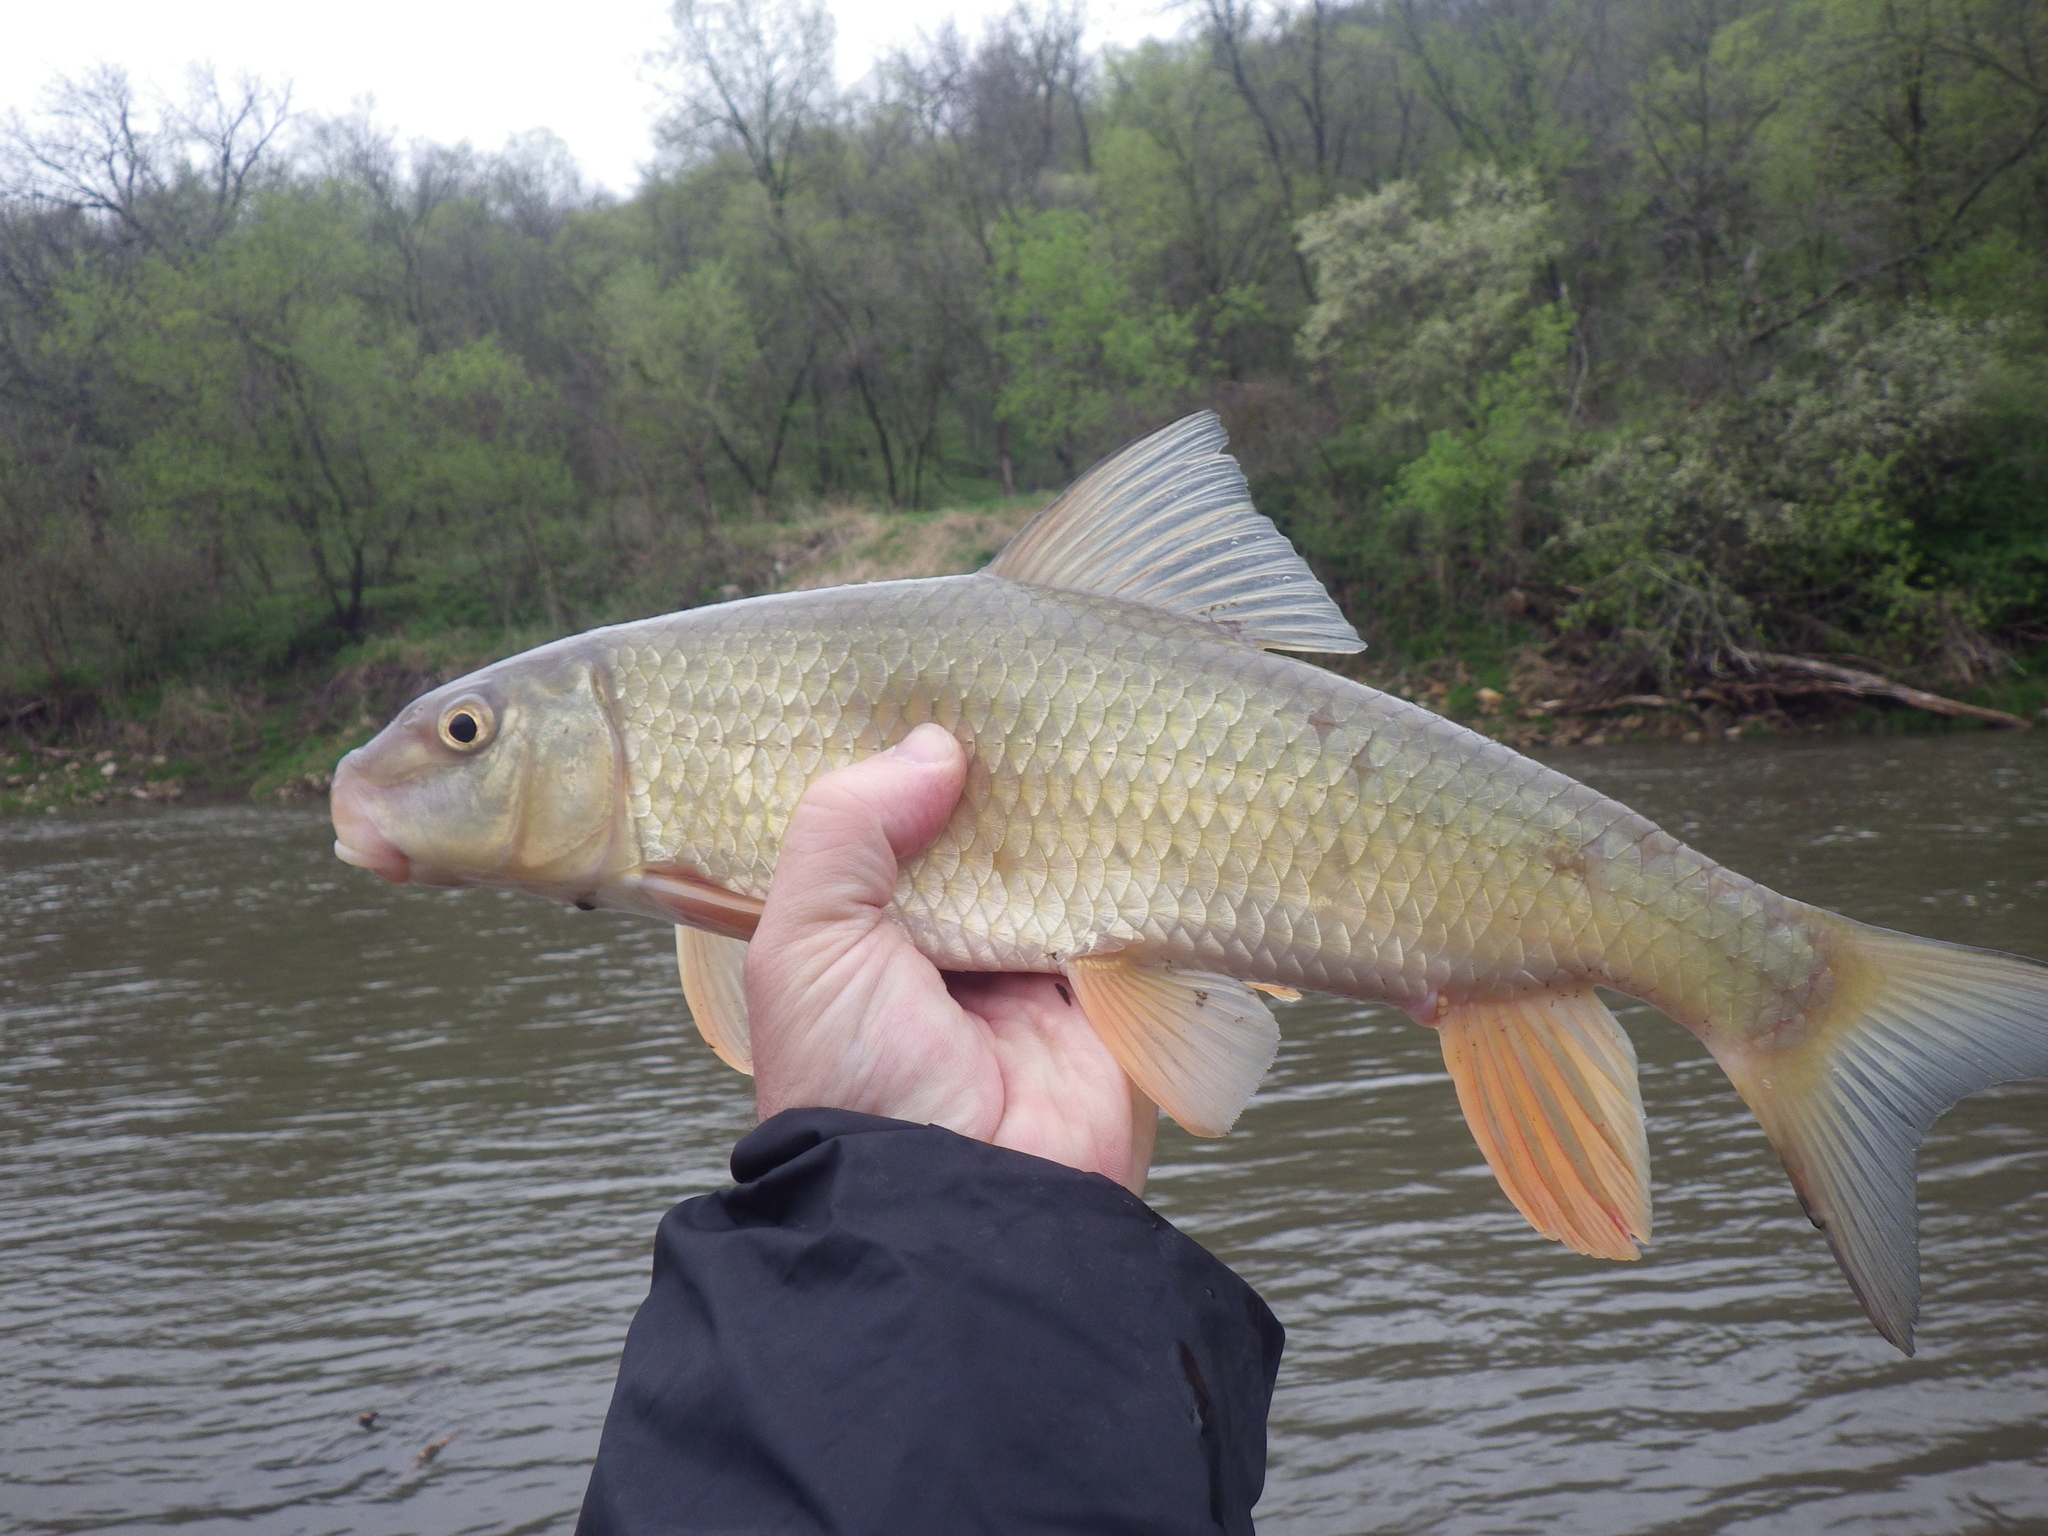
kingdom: Animalia
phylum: Chordata
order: Cypriniformes
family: Catostomidae
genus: Moxostoma
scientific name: Moxostoma erythrurum
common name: Golden redhorse
